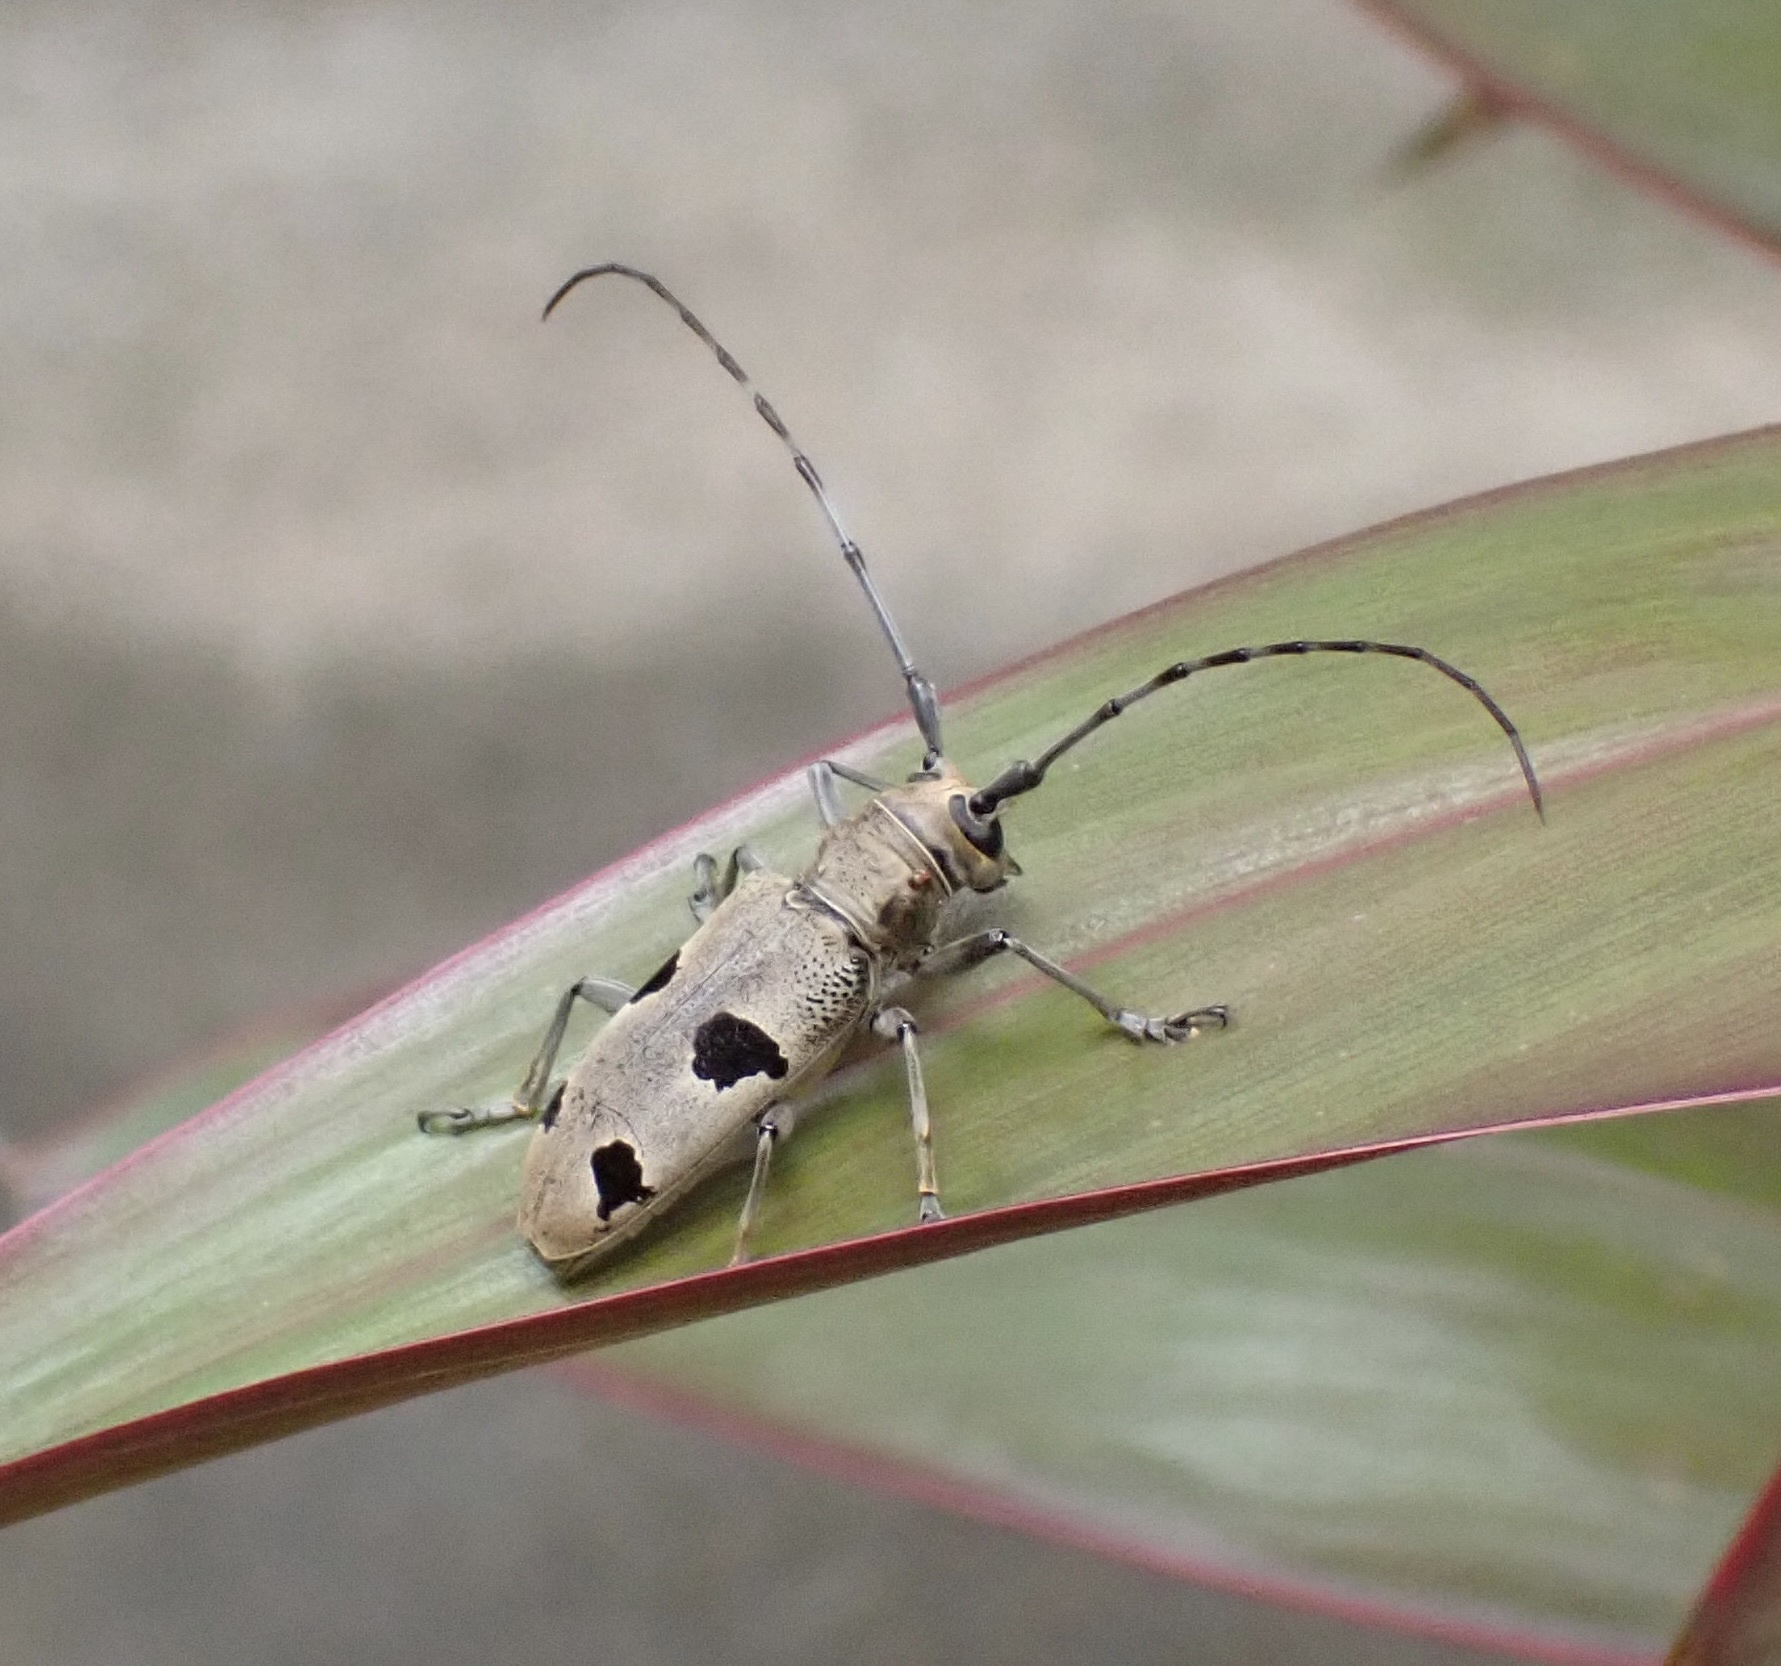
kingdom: Animalia
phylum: Arthropoda
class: Insecta
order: Coleoptera
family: Cerambycidae
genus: Epepeotes
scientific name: Epepeotes plorator
